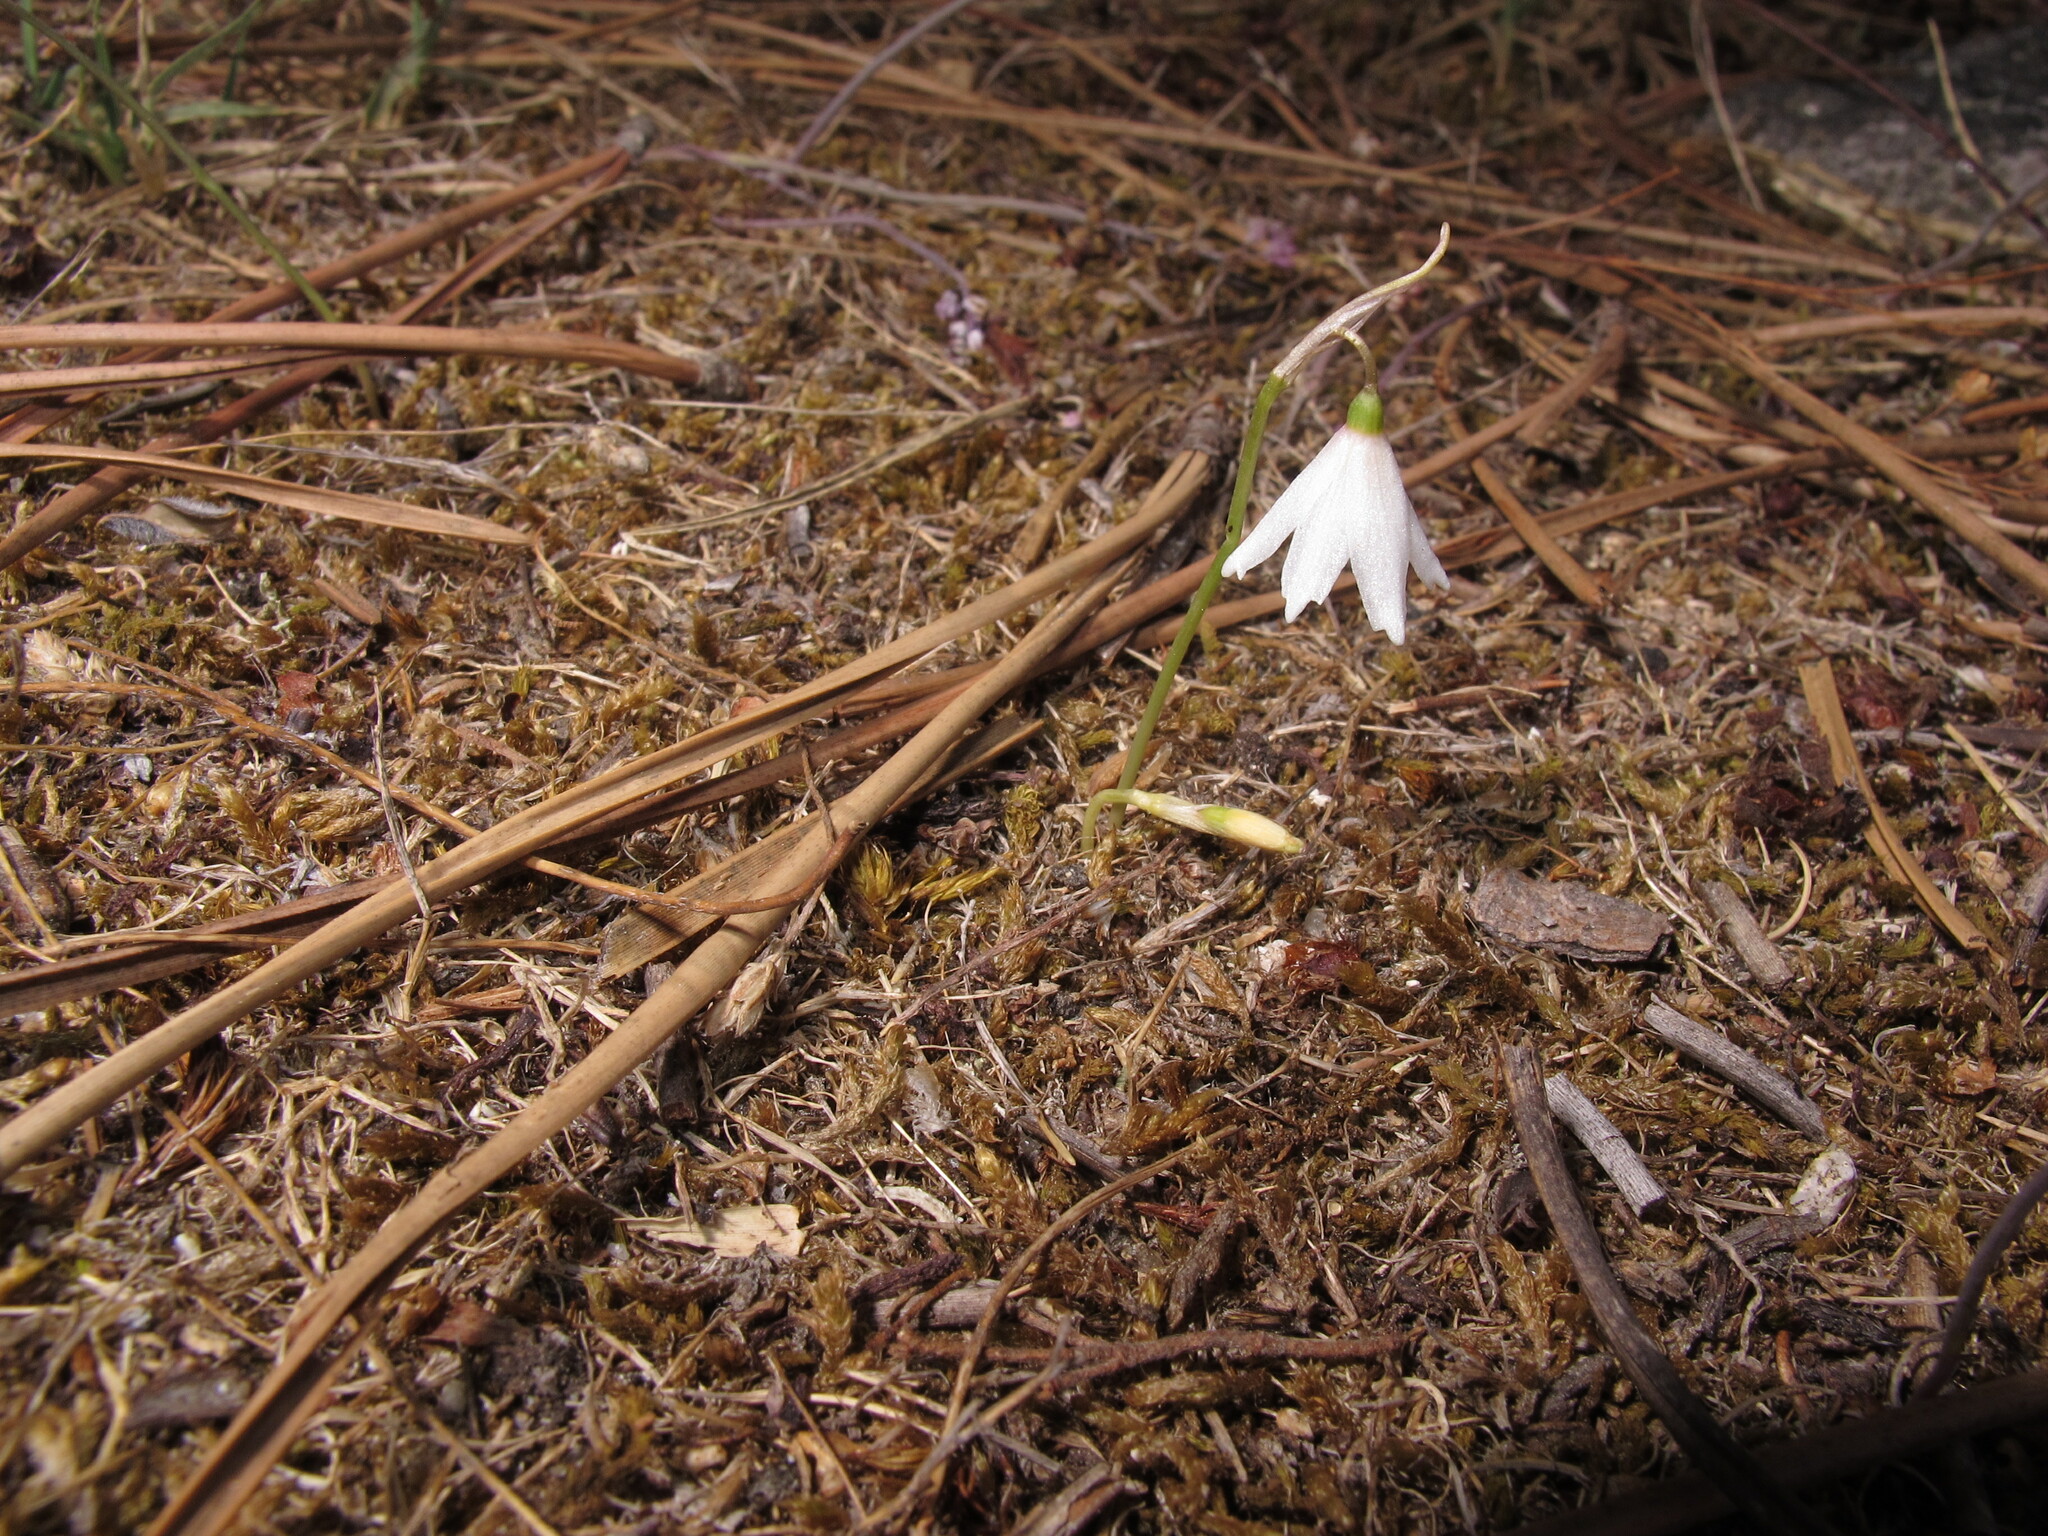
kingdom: Plantae
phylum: Tracheophyta
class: Liliopsida
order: Asparagales
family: Amaryllidaceae
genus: Acis
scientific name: Acis autumnalis
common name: Autumn snowflake
